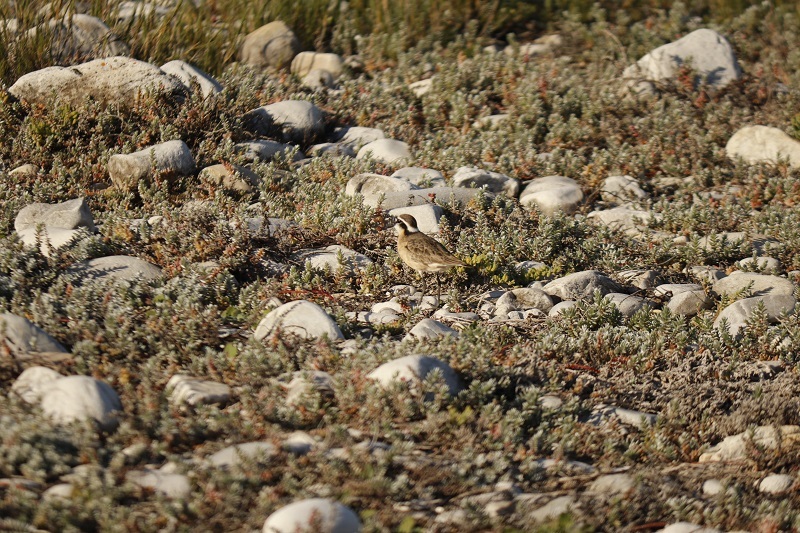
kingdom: Animalia
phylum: Chordata
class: Aves
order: Charadriiformes
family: Charadriidae
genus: Anarhynchus
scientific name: Anarhynchus
